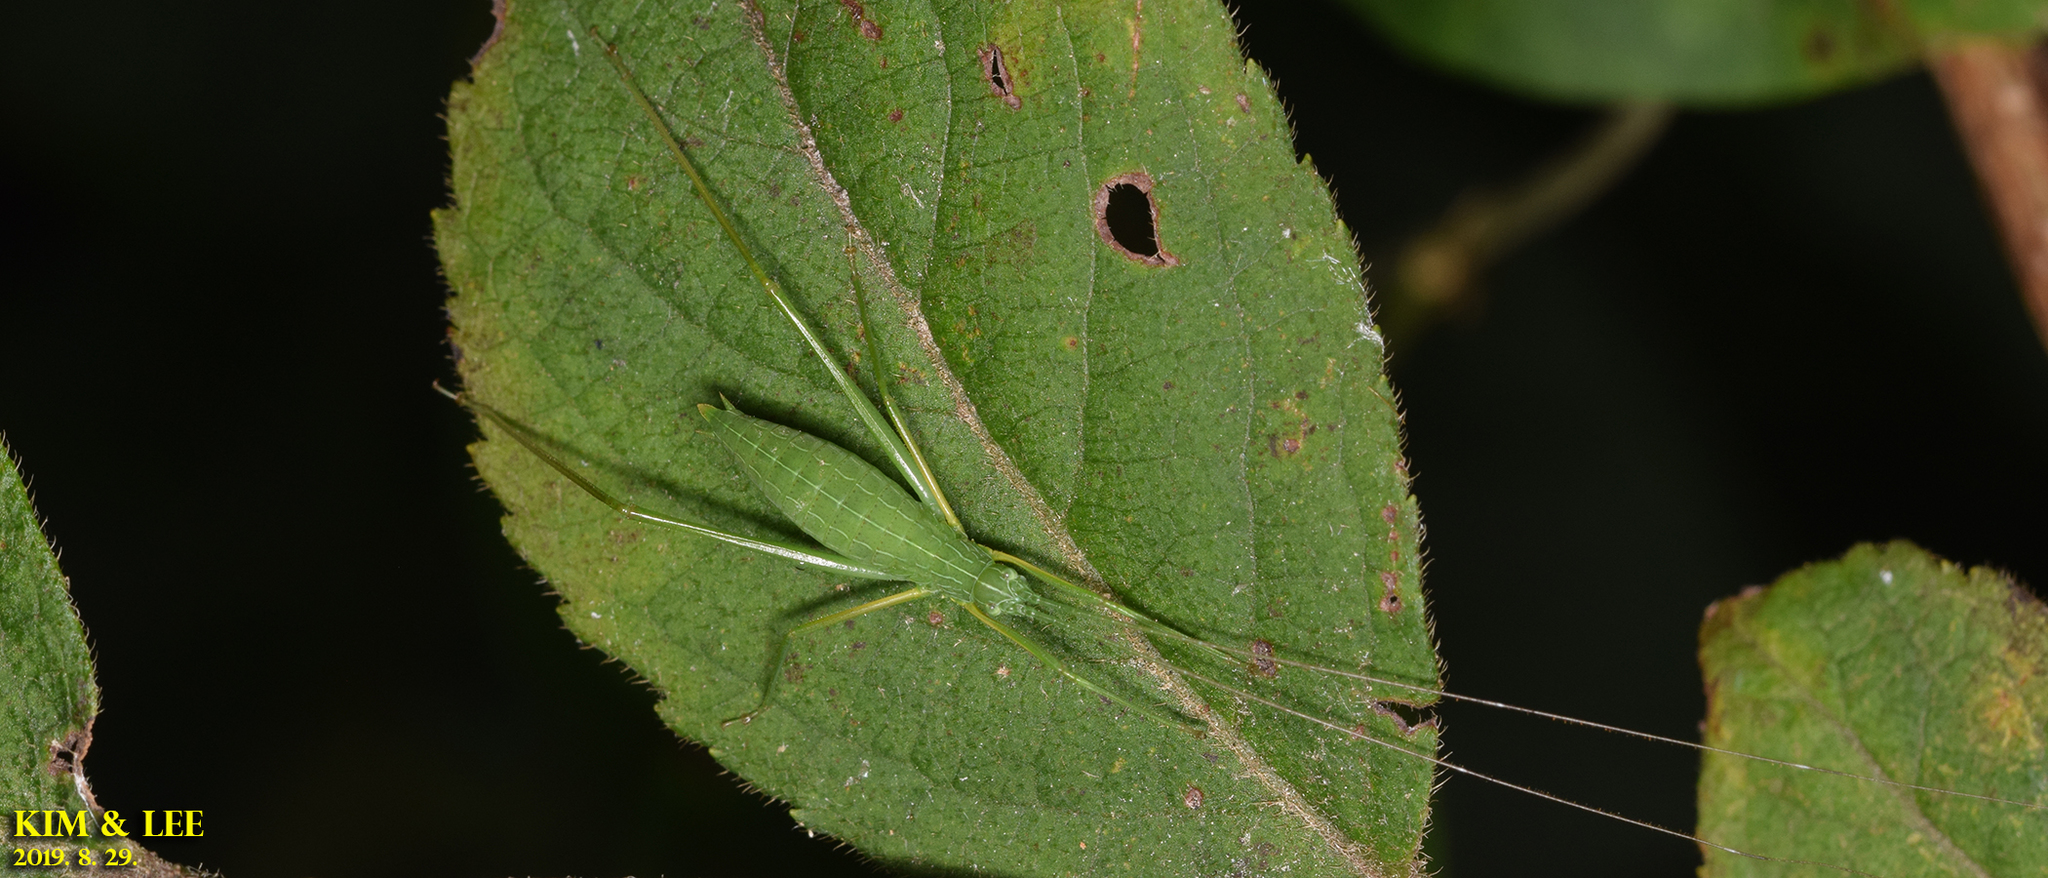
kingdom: Animalia
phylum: Arthropoda
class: Insecta
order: Orthoptera
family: Tettigoniidae
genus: Elimaea
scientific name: Elimaea fallax
